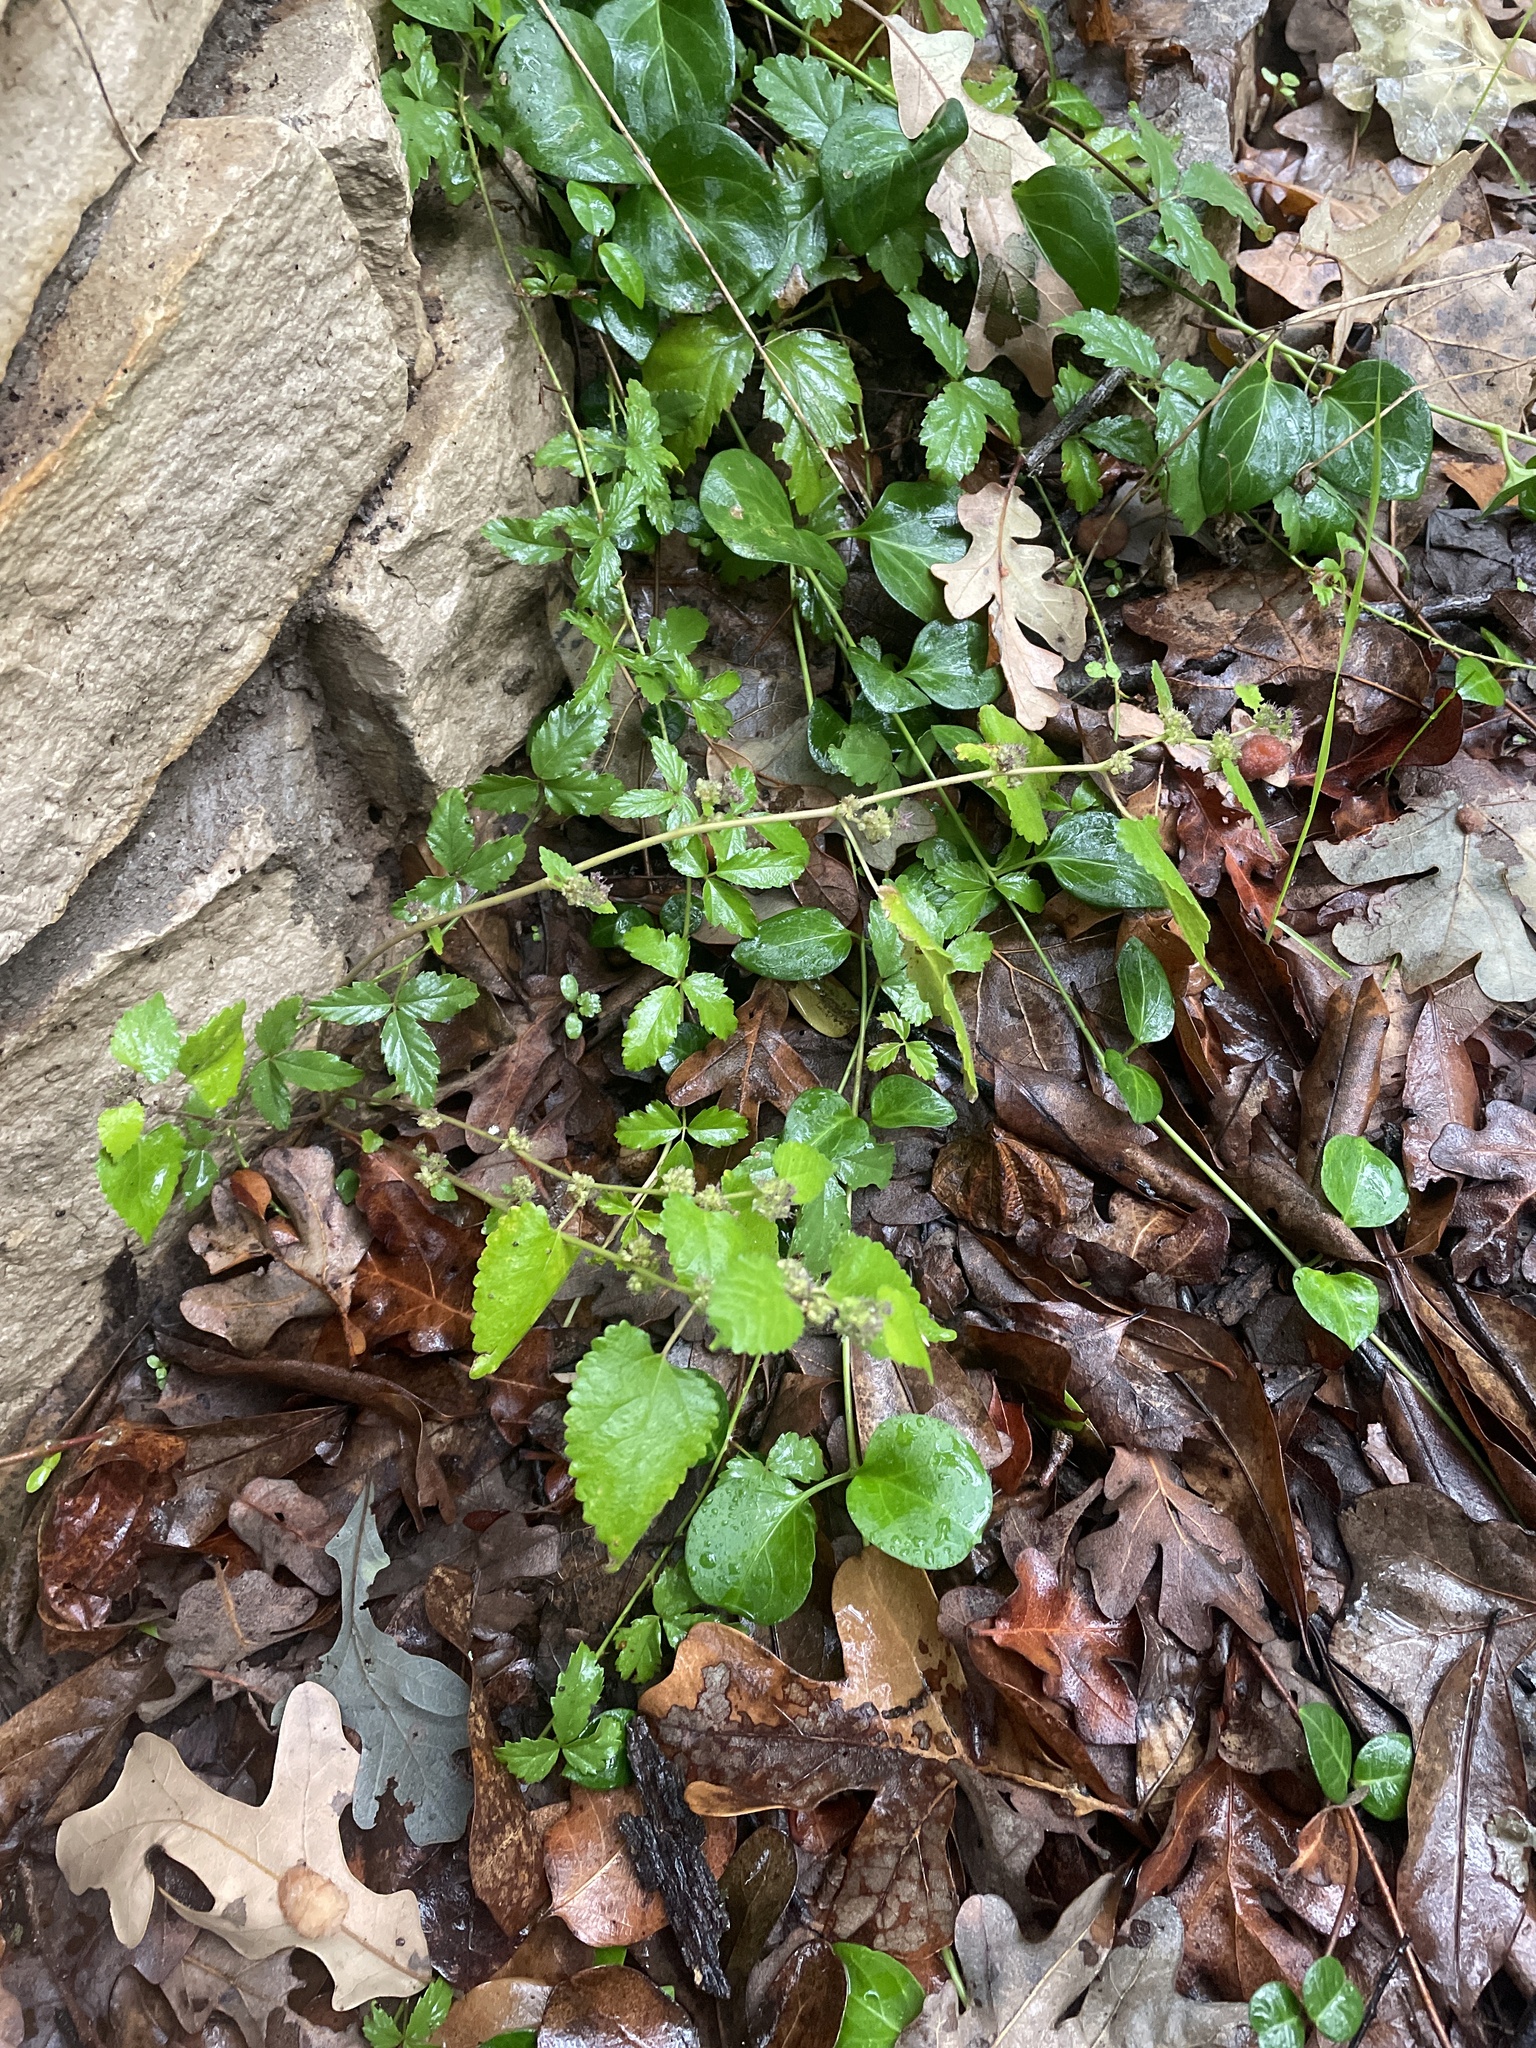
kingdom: Plantae
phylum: Tracheophyta
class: Magnoliopsida
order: Rosales
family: Moraceae
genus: Fatoua
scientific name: Fatoua villosa
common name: Hairy crabweed
